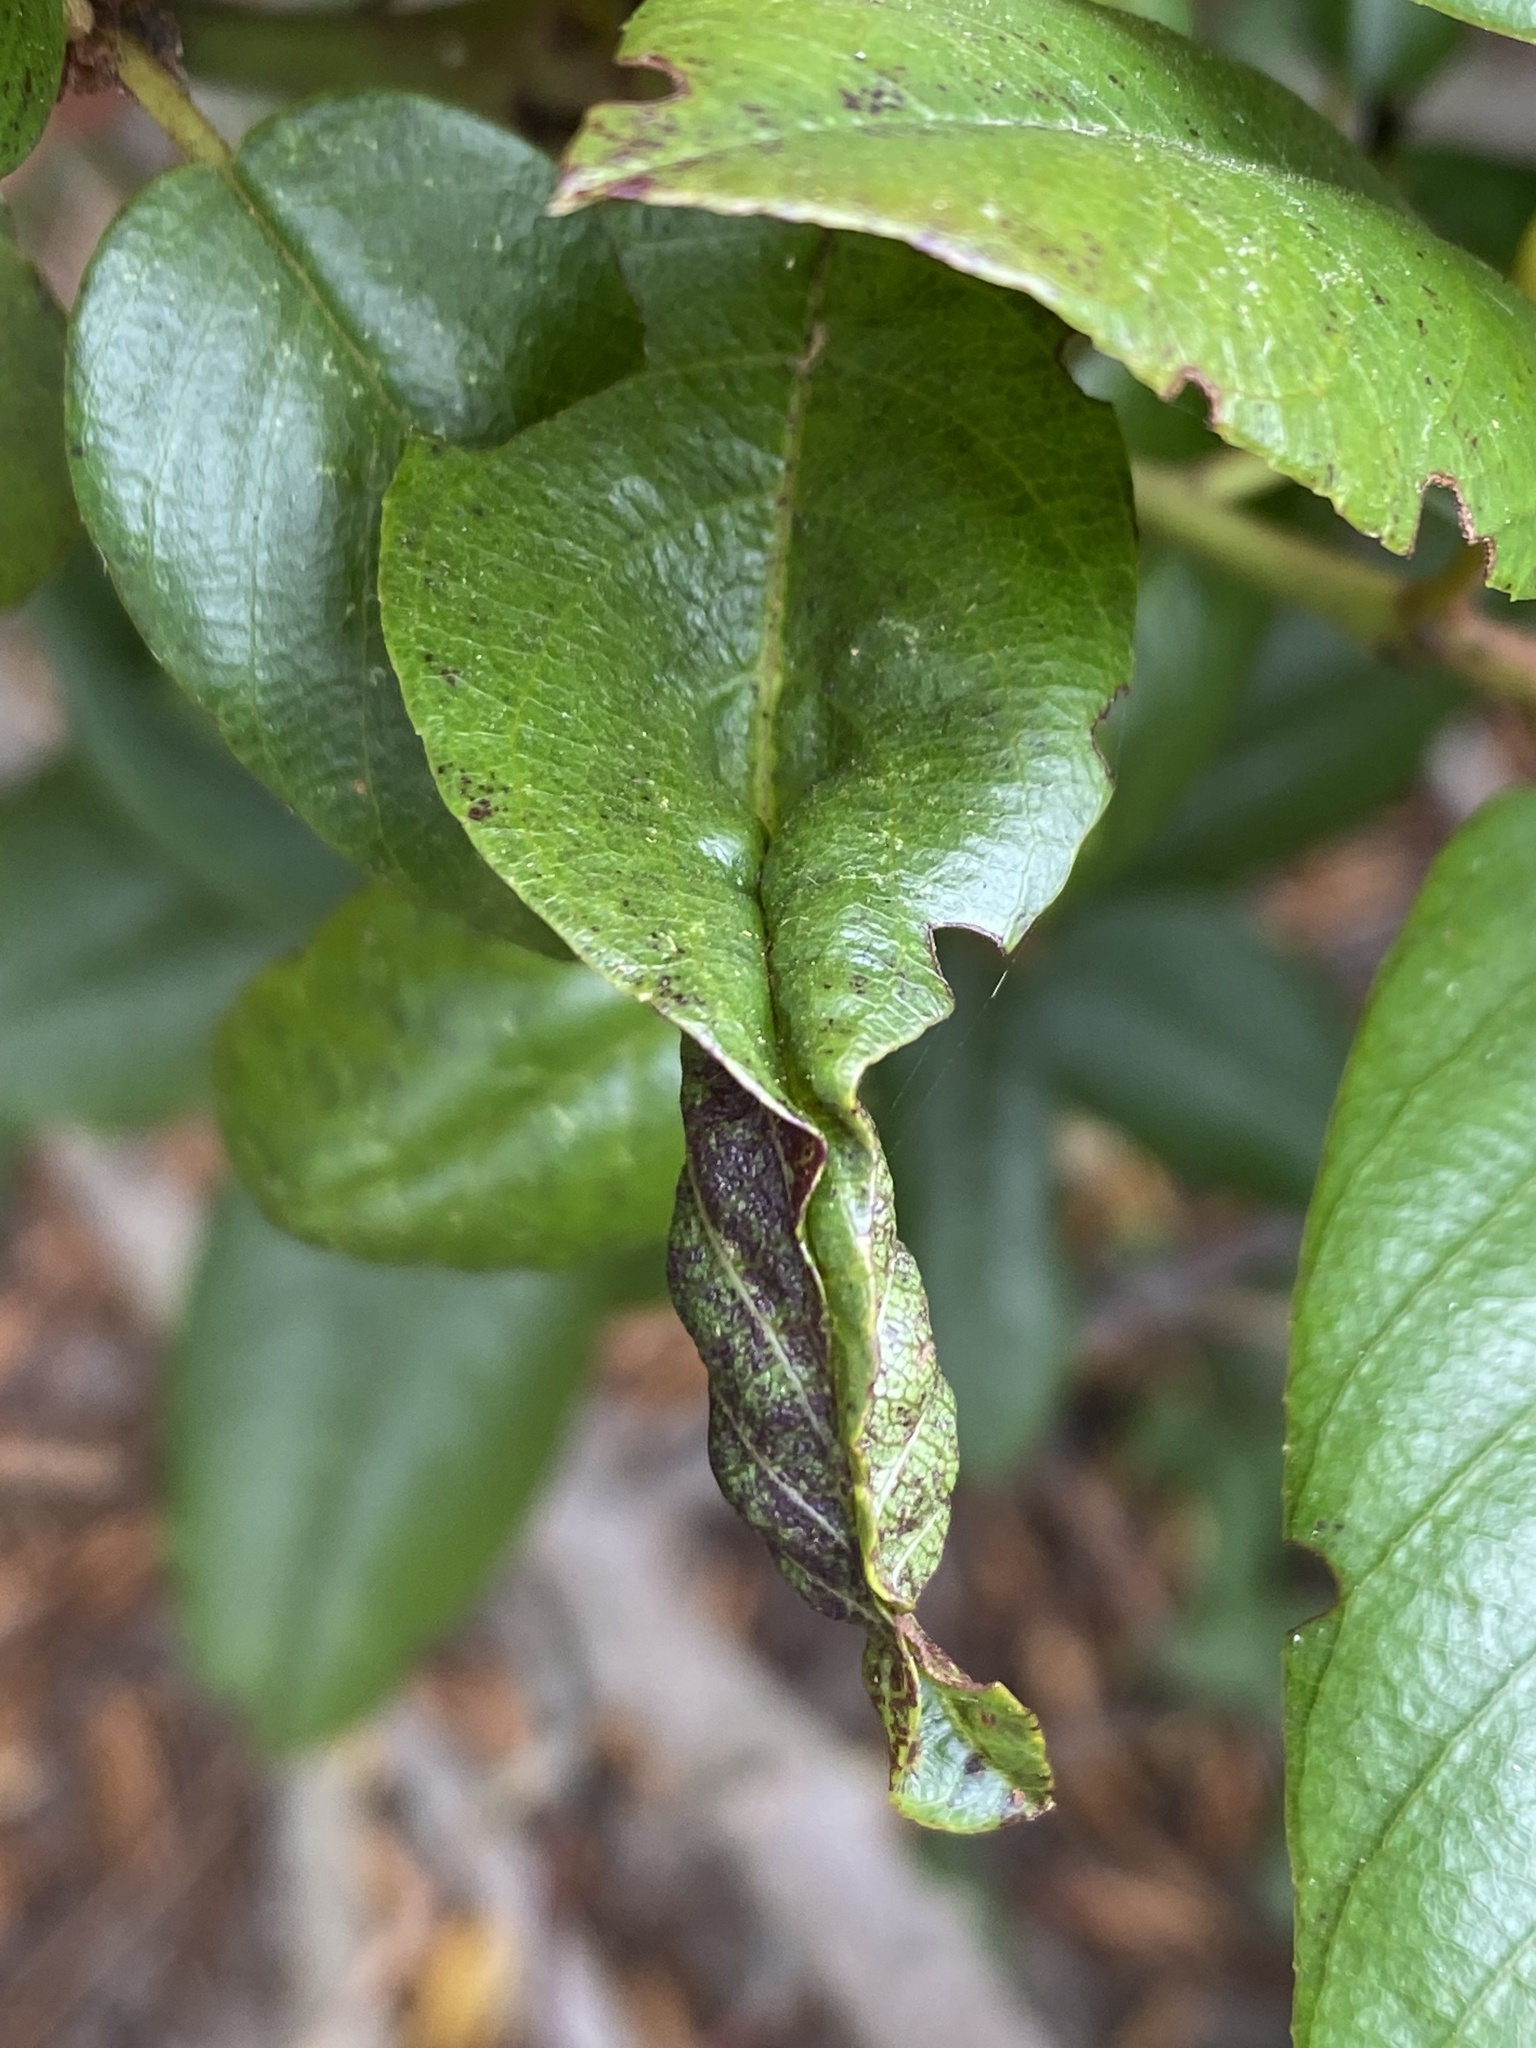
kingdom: Animalia
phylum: Arthropoda
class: Insecta
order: Lepidoptera
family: Cosmopterigidae
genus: Sorhagenia
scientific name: Sorhagenia nimbosus
